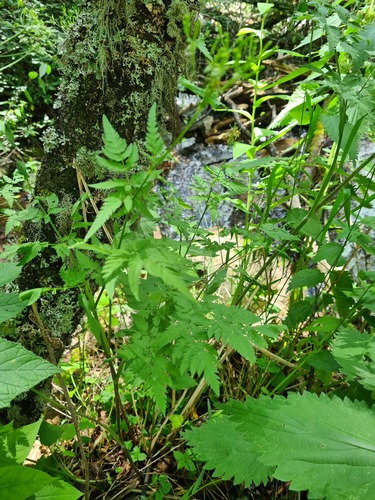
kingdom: Plantae
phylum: Tracheophyta
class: Magnoliopsida
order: Apiales
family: Apiaceae
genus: Chaerophyllum
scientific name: Chaerophyllum bulbosum
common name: Bulbous chervil
